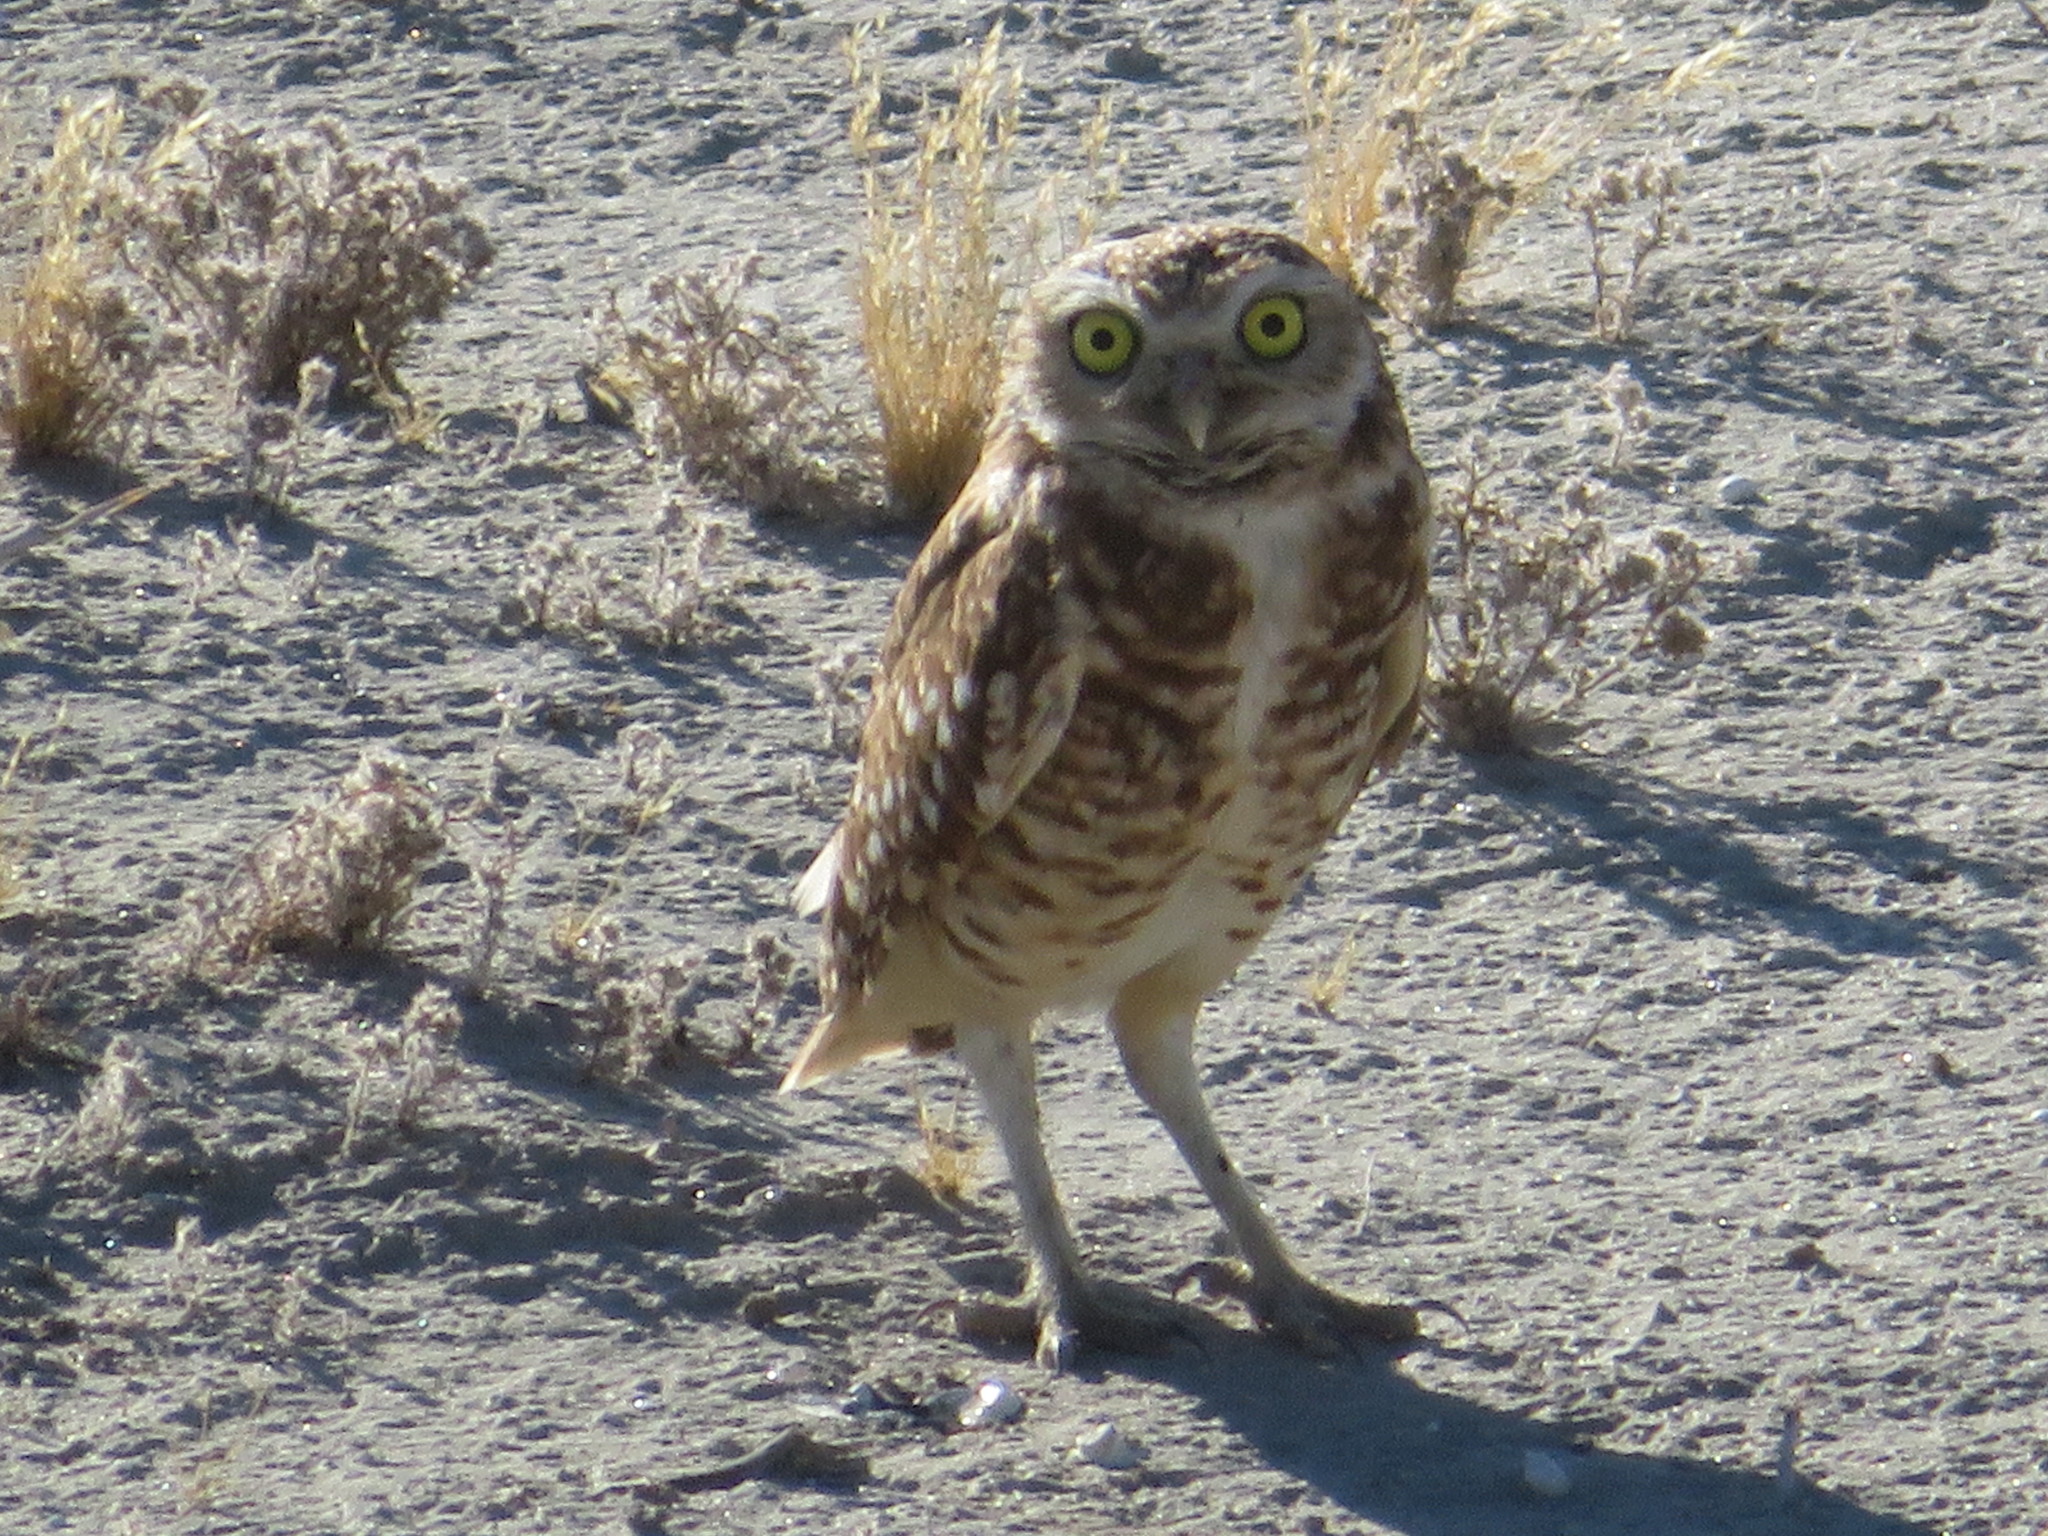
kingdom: Animalia
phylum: Chordata
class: Aves
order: Strigiformes
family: Strigidae
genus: Athene
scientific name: Athene cunicularia
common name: Burrowing owl
